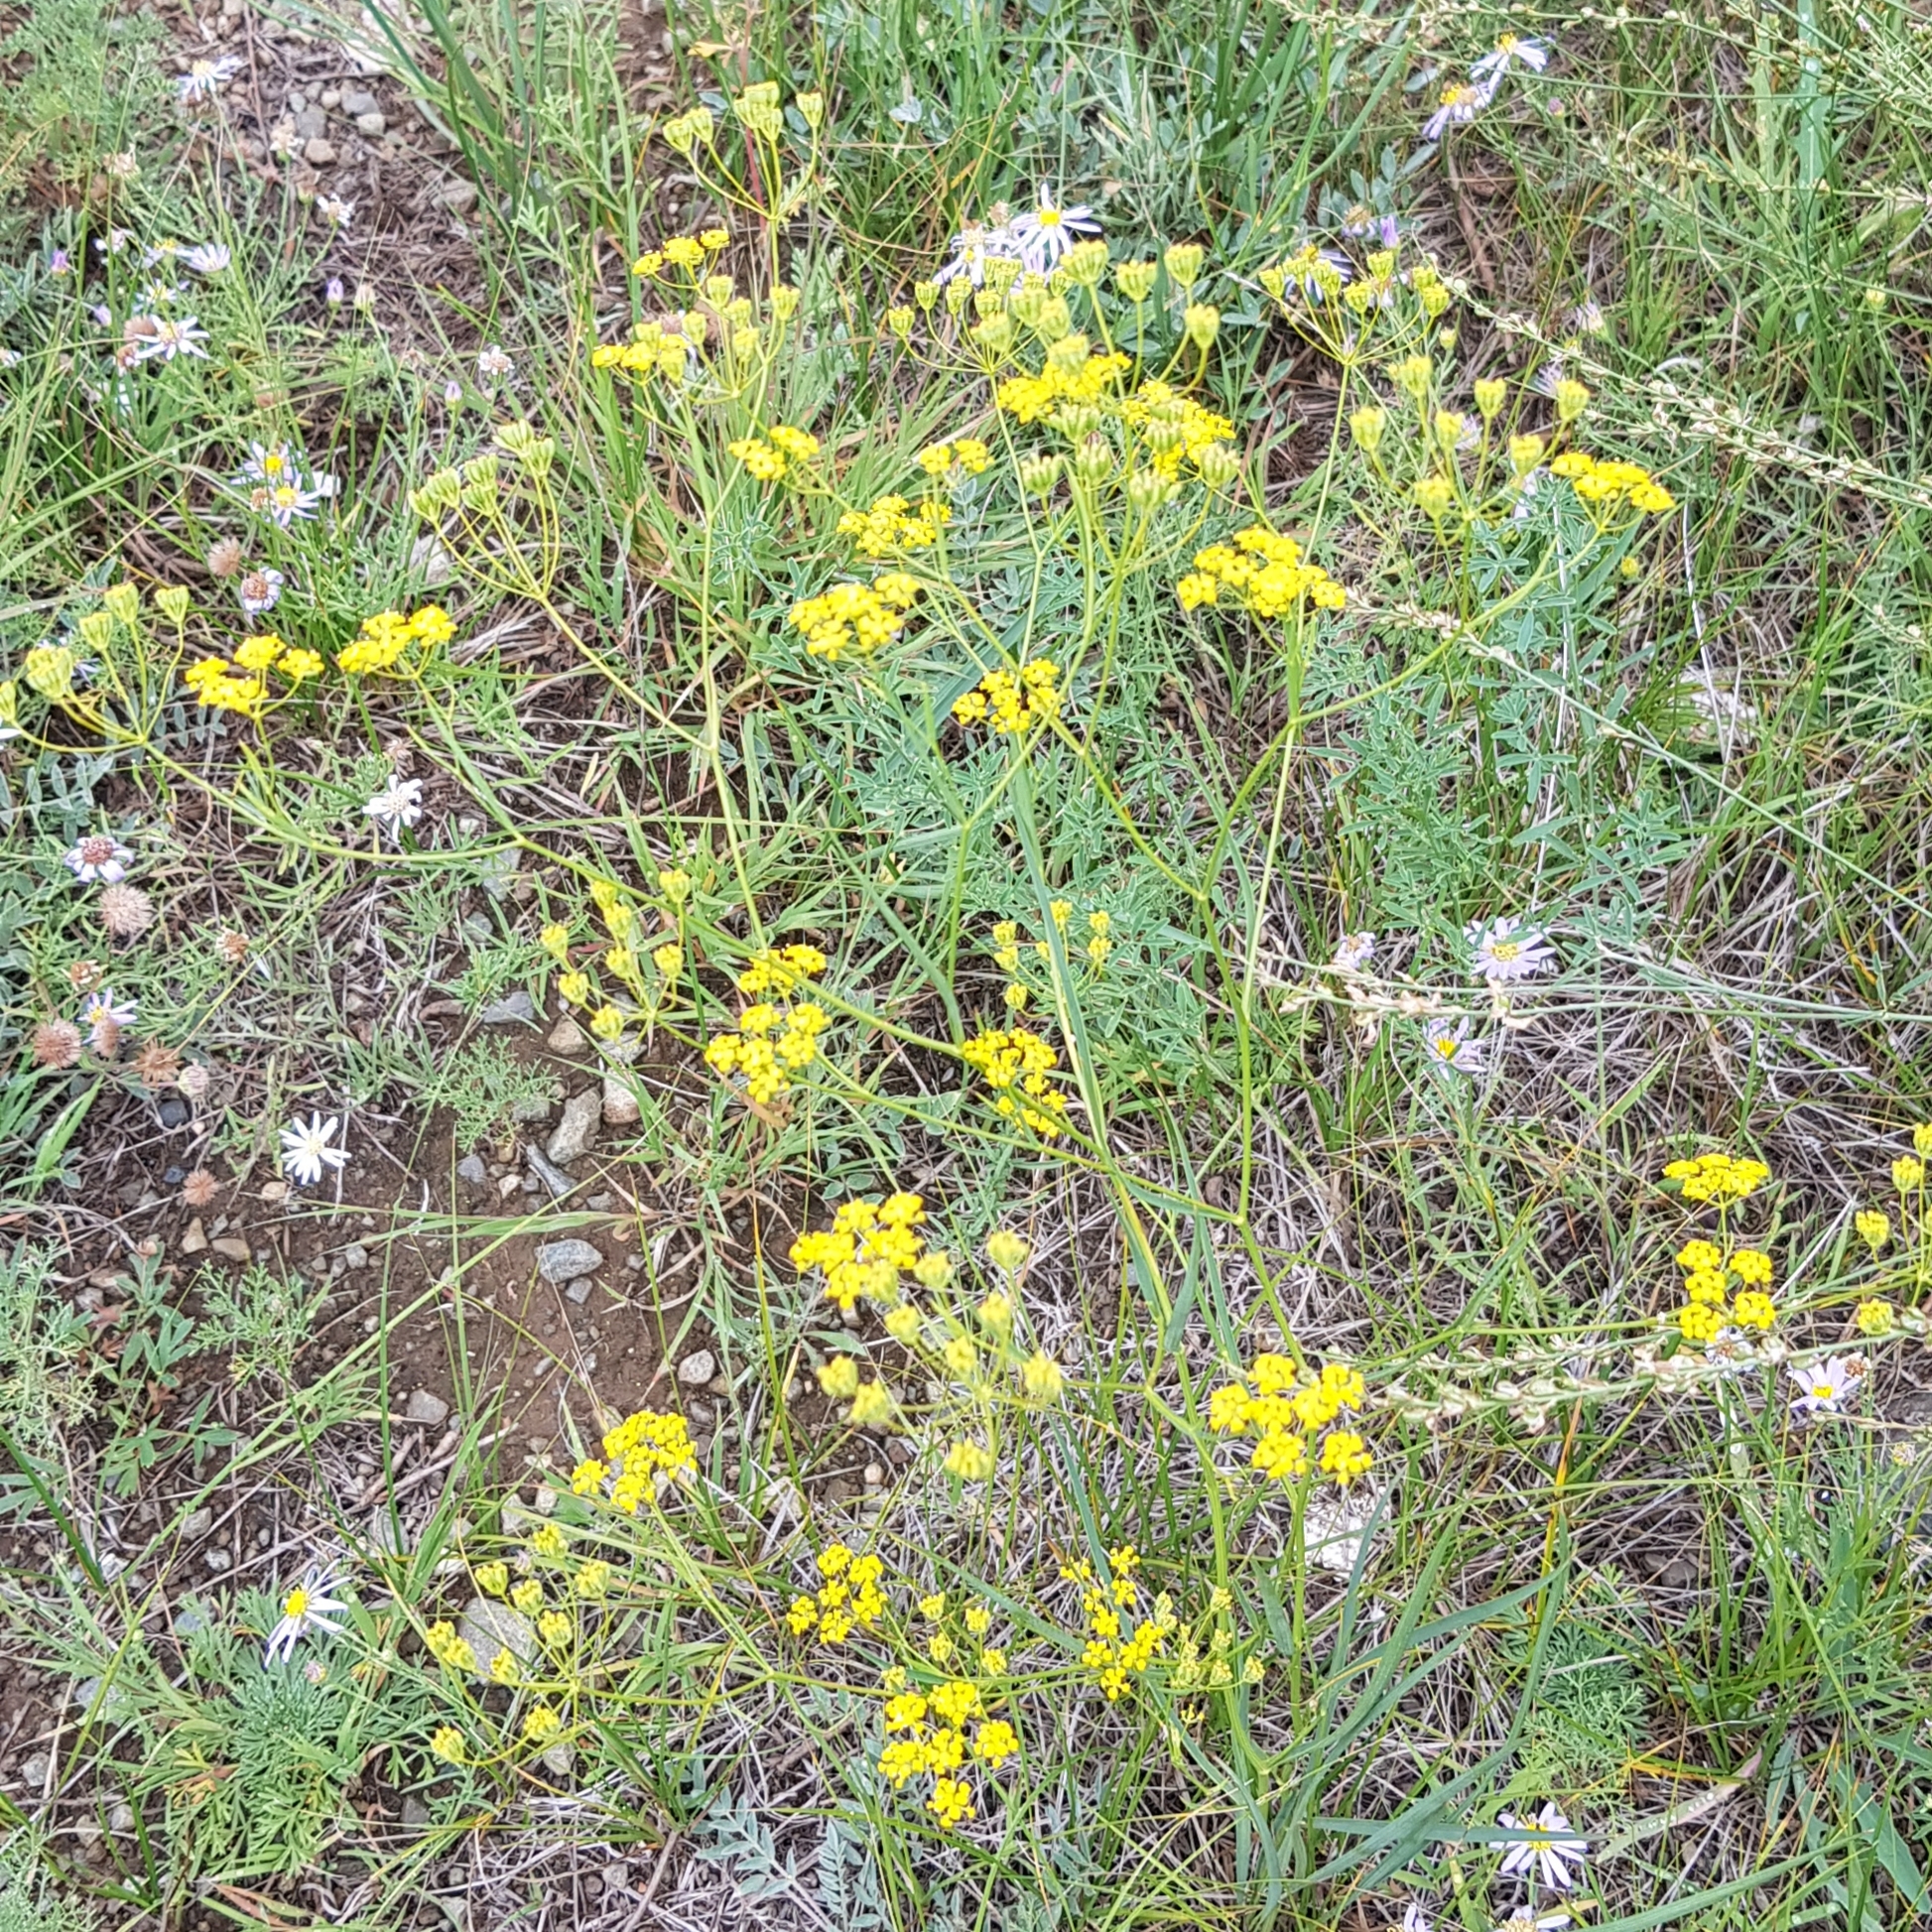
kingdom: Plantae
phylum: Tracheophyta
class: Magnoliopsida
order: Apiales
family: Apiaceae
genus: Bupleurum
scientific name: Bupleurum scorzonerifolium
